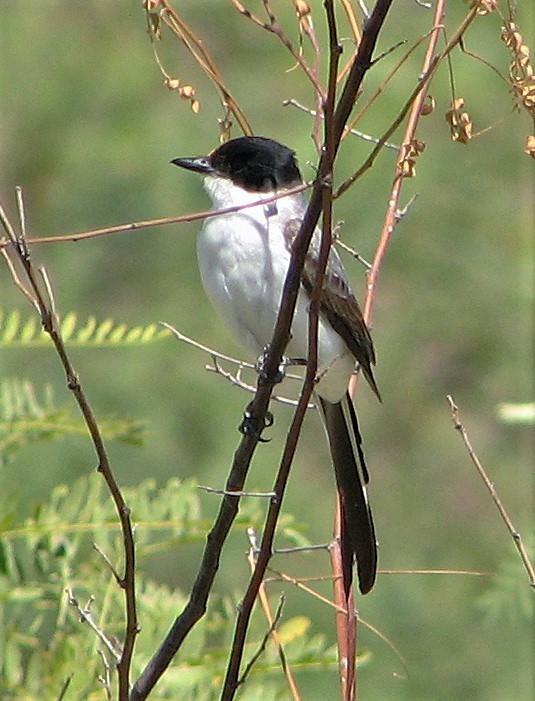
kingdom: Animalia
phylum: Chordata
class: Aves
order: Passeriformes
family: Tyrannidae
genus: Tyrannus
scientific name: Tyrannus savana
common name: Fork-tailed flycatcher
